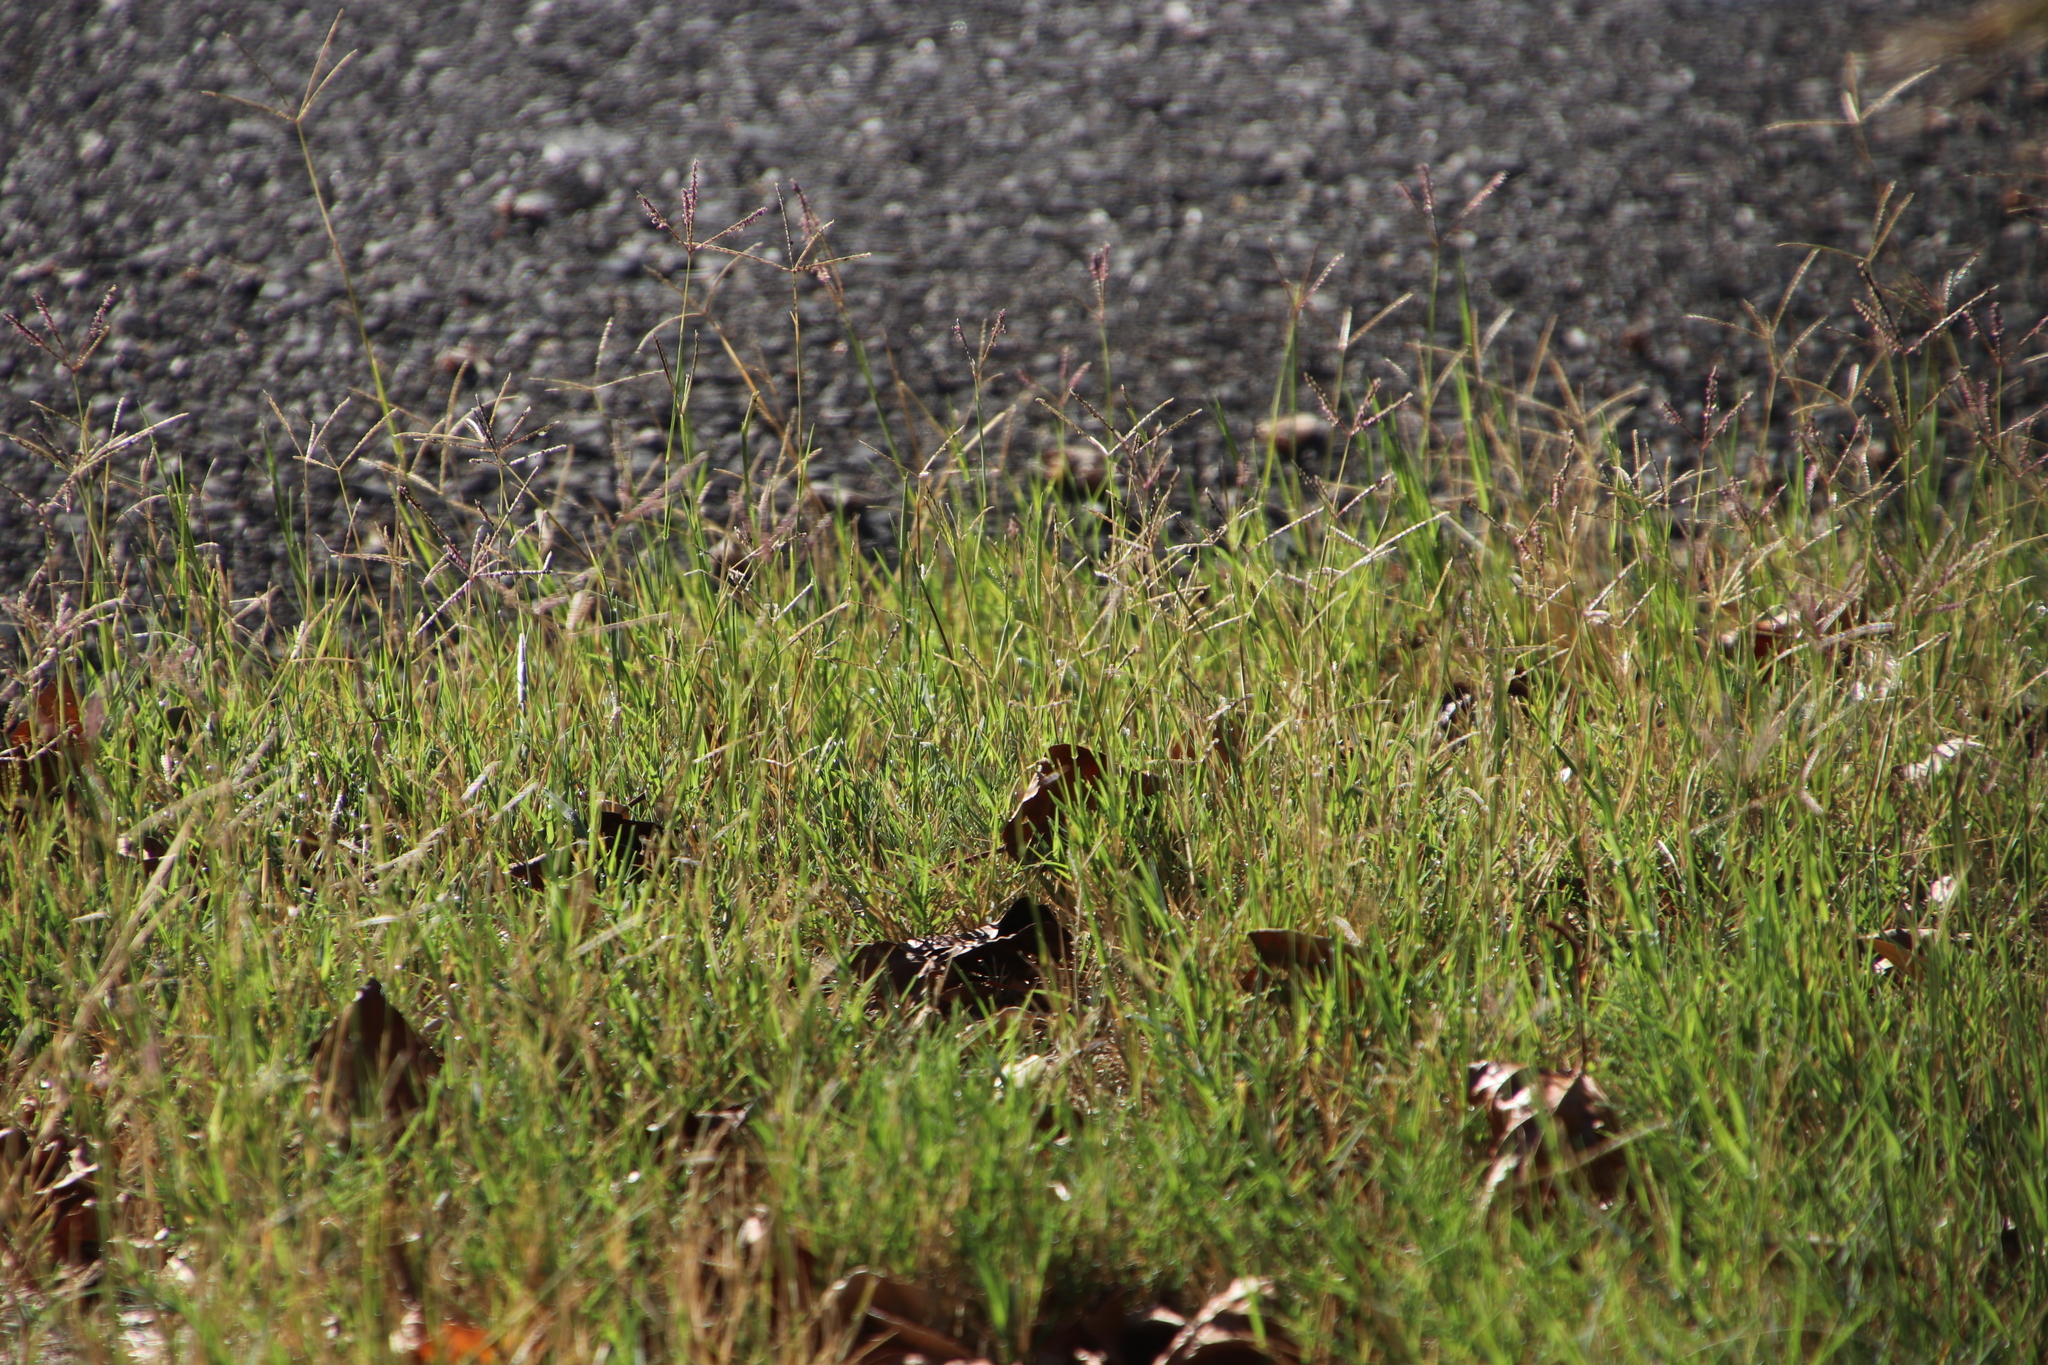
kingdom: Plantae
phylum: Tracheophyta
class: Liliopsida
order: Poales
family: Poaceae
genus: Cynodon
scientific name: Cynodon dactylon
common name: Bermuda grass
